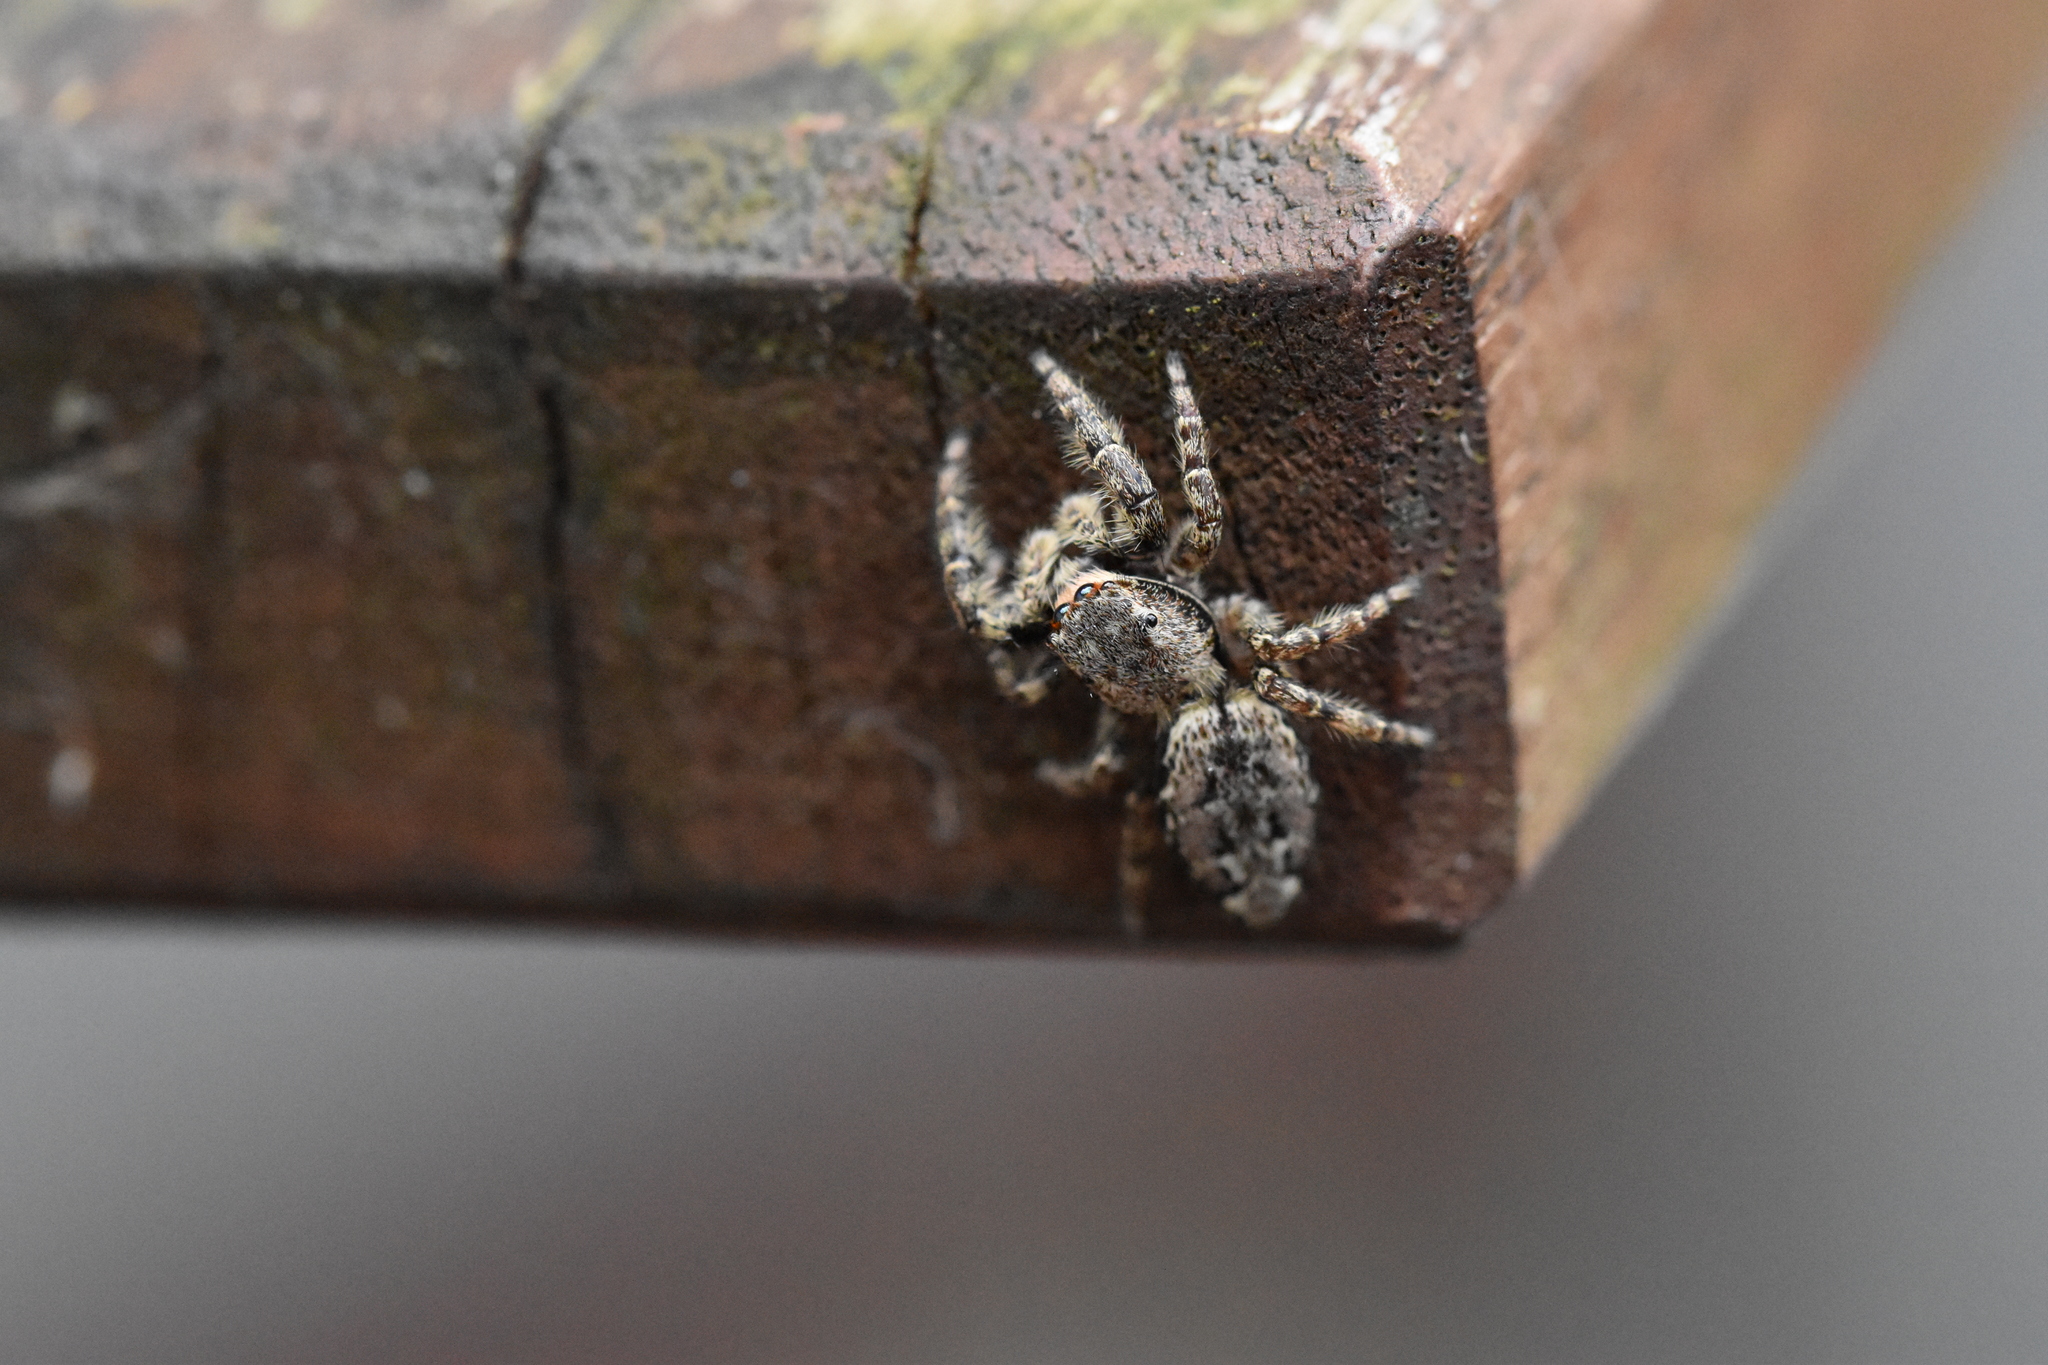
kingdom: Animalia
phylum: Arthropoda
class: Arachnida
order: Araneae
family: Salticidae
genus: Marpissa
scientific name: Marpissa muscosa
